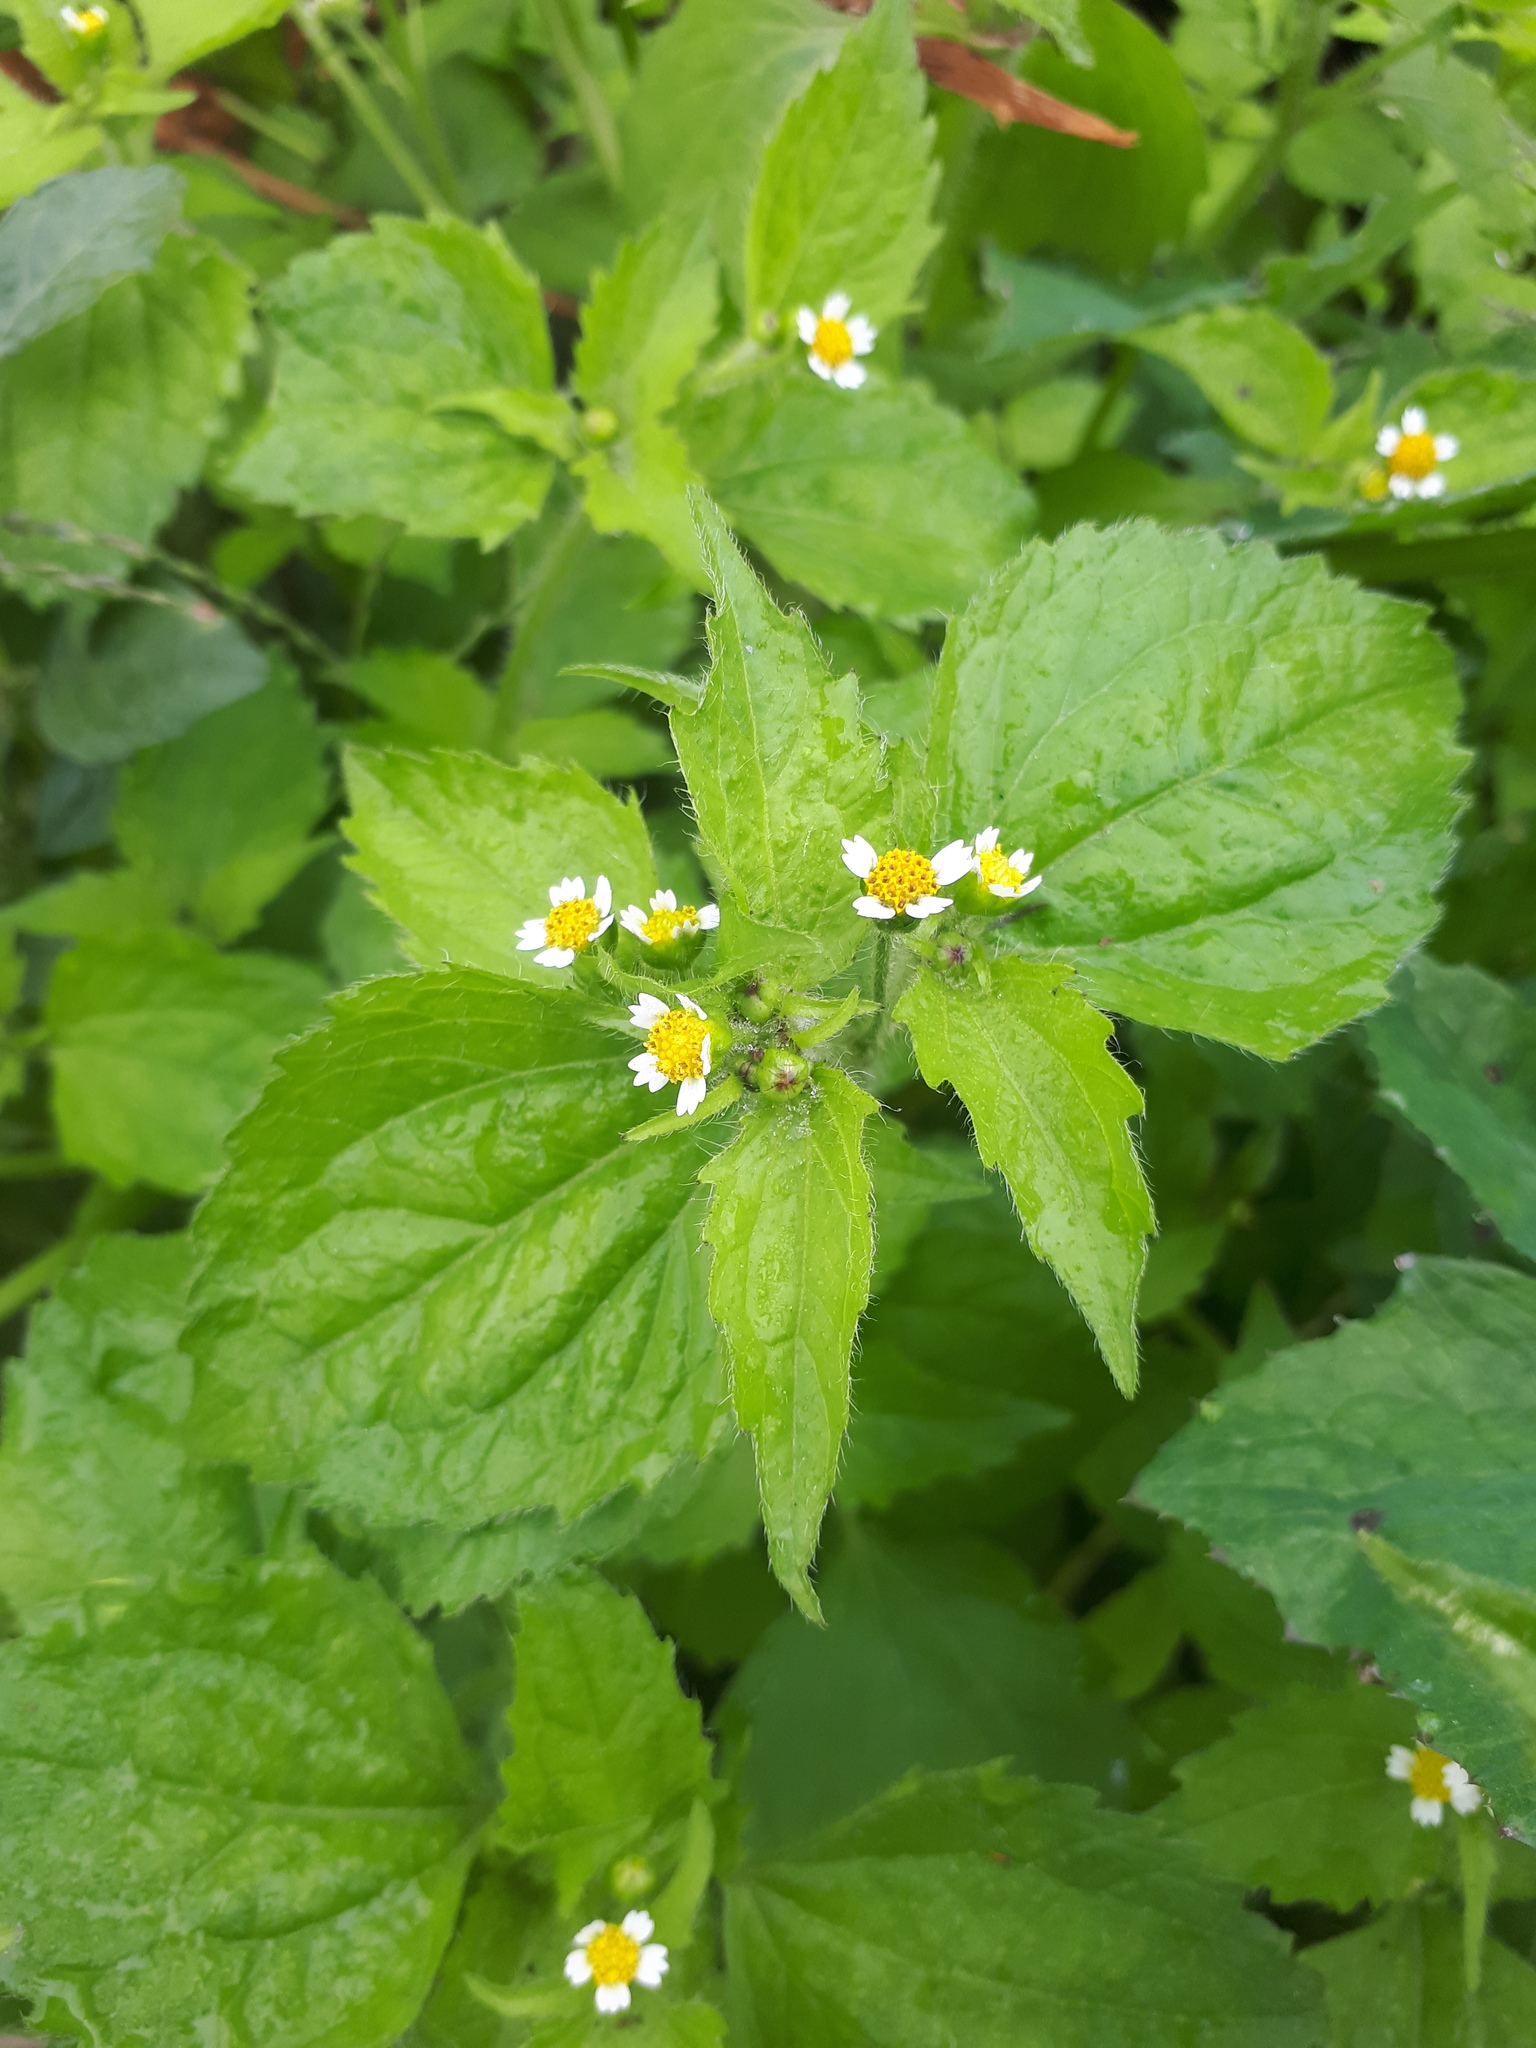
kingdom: Plantae
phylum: Tracheophyta
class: Magnoliopsida
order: Asterales
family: Asteraceae
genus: Galinsoga
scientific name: Galinsoga quadriradiata
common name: Shaggy soldier
